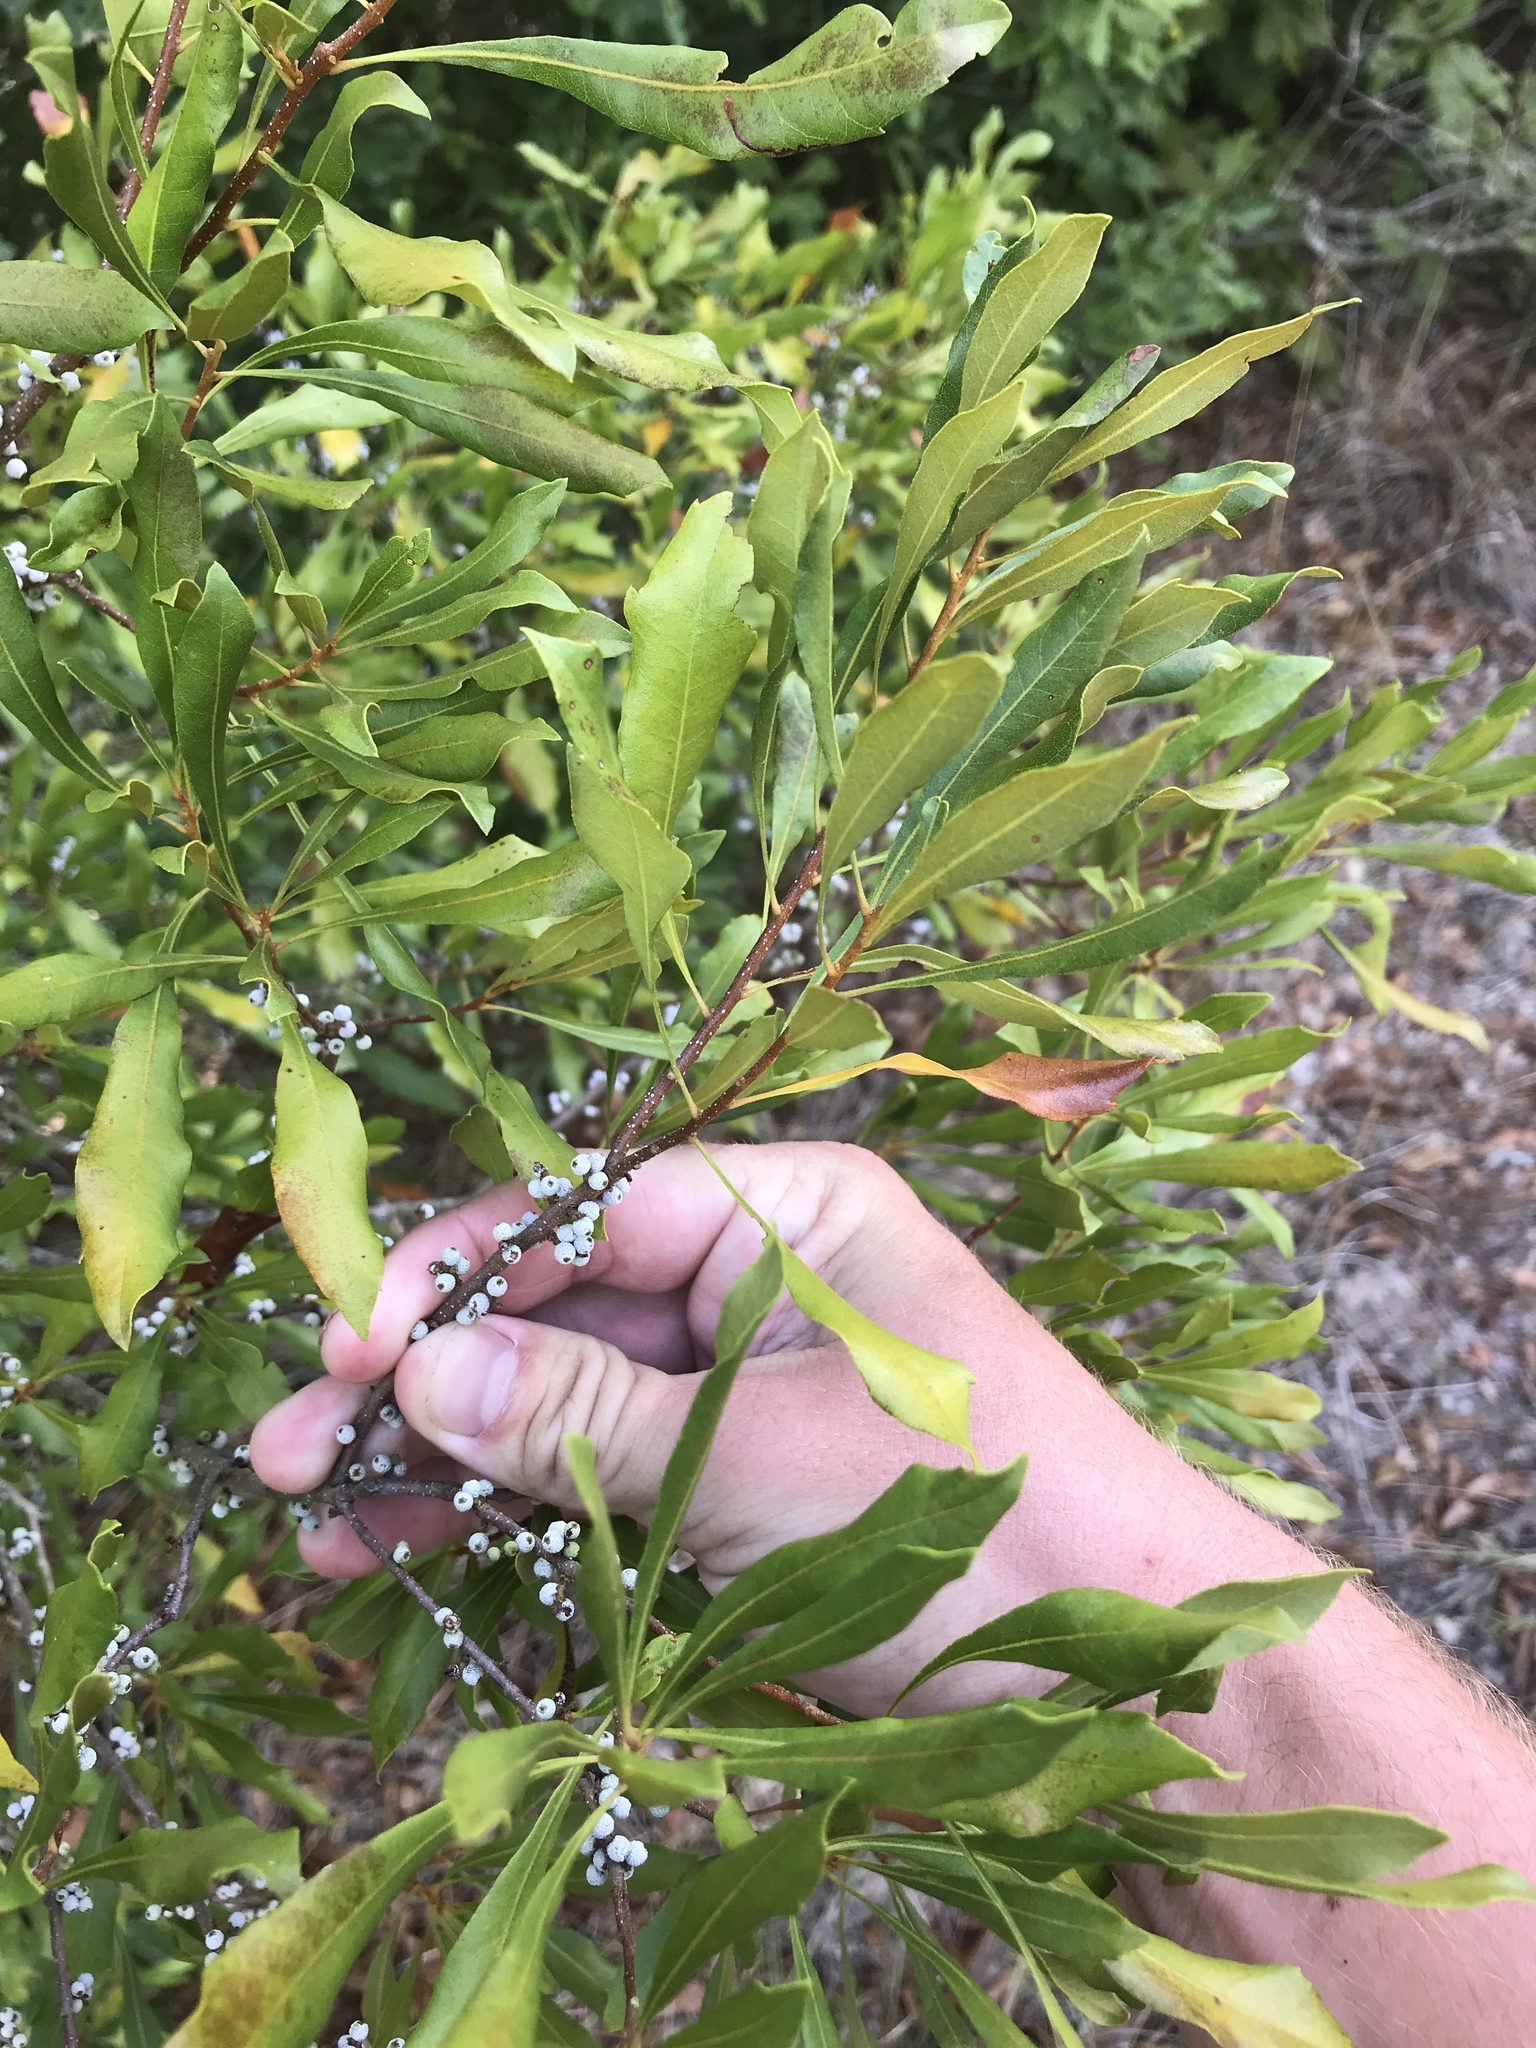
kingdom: Plantae
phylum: Tracheophyta
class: Magnoliopsida
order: Fagales
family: Myricaceae
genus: Morella
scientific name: Morella cerifera
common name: Wax myrtle
